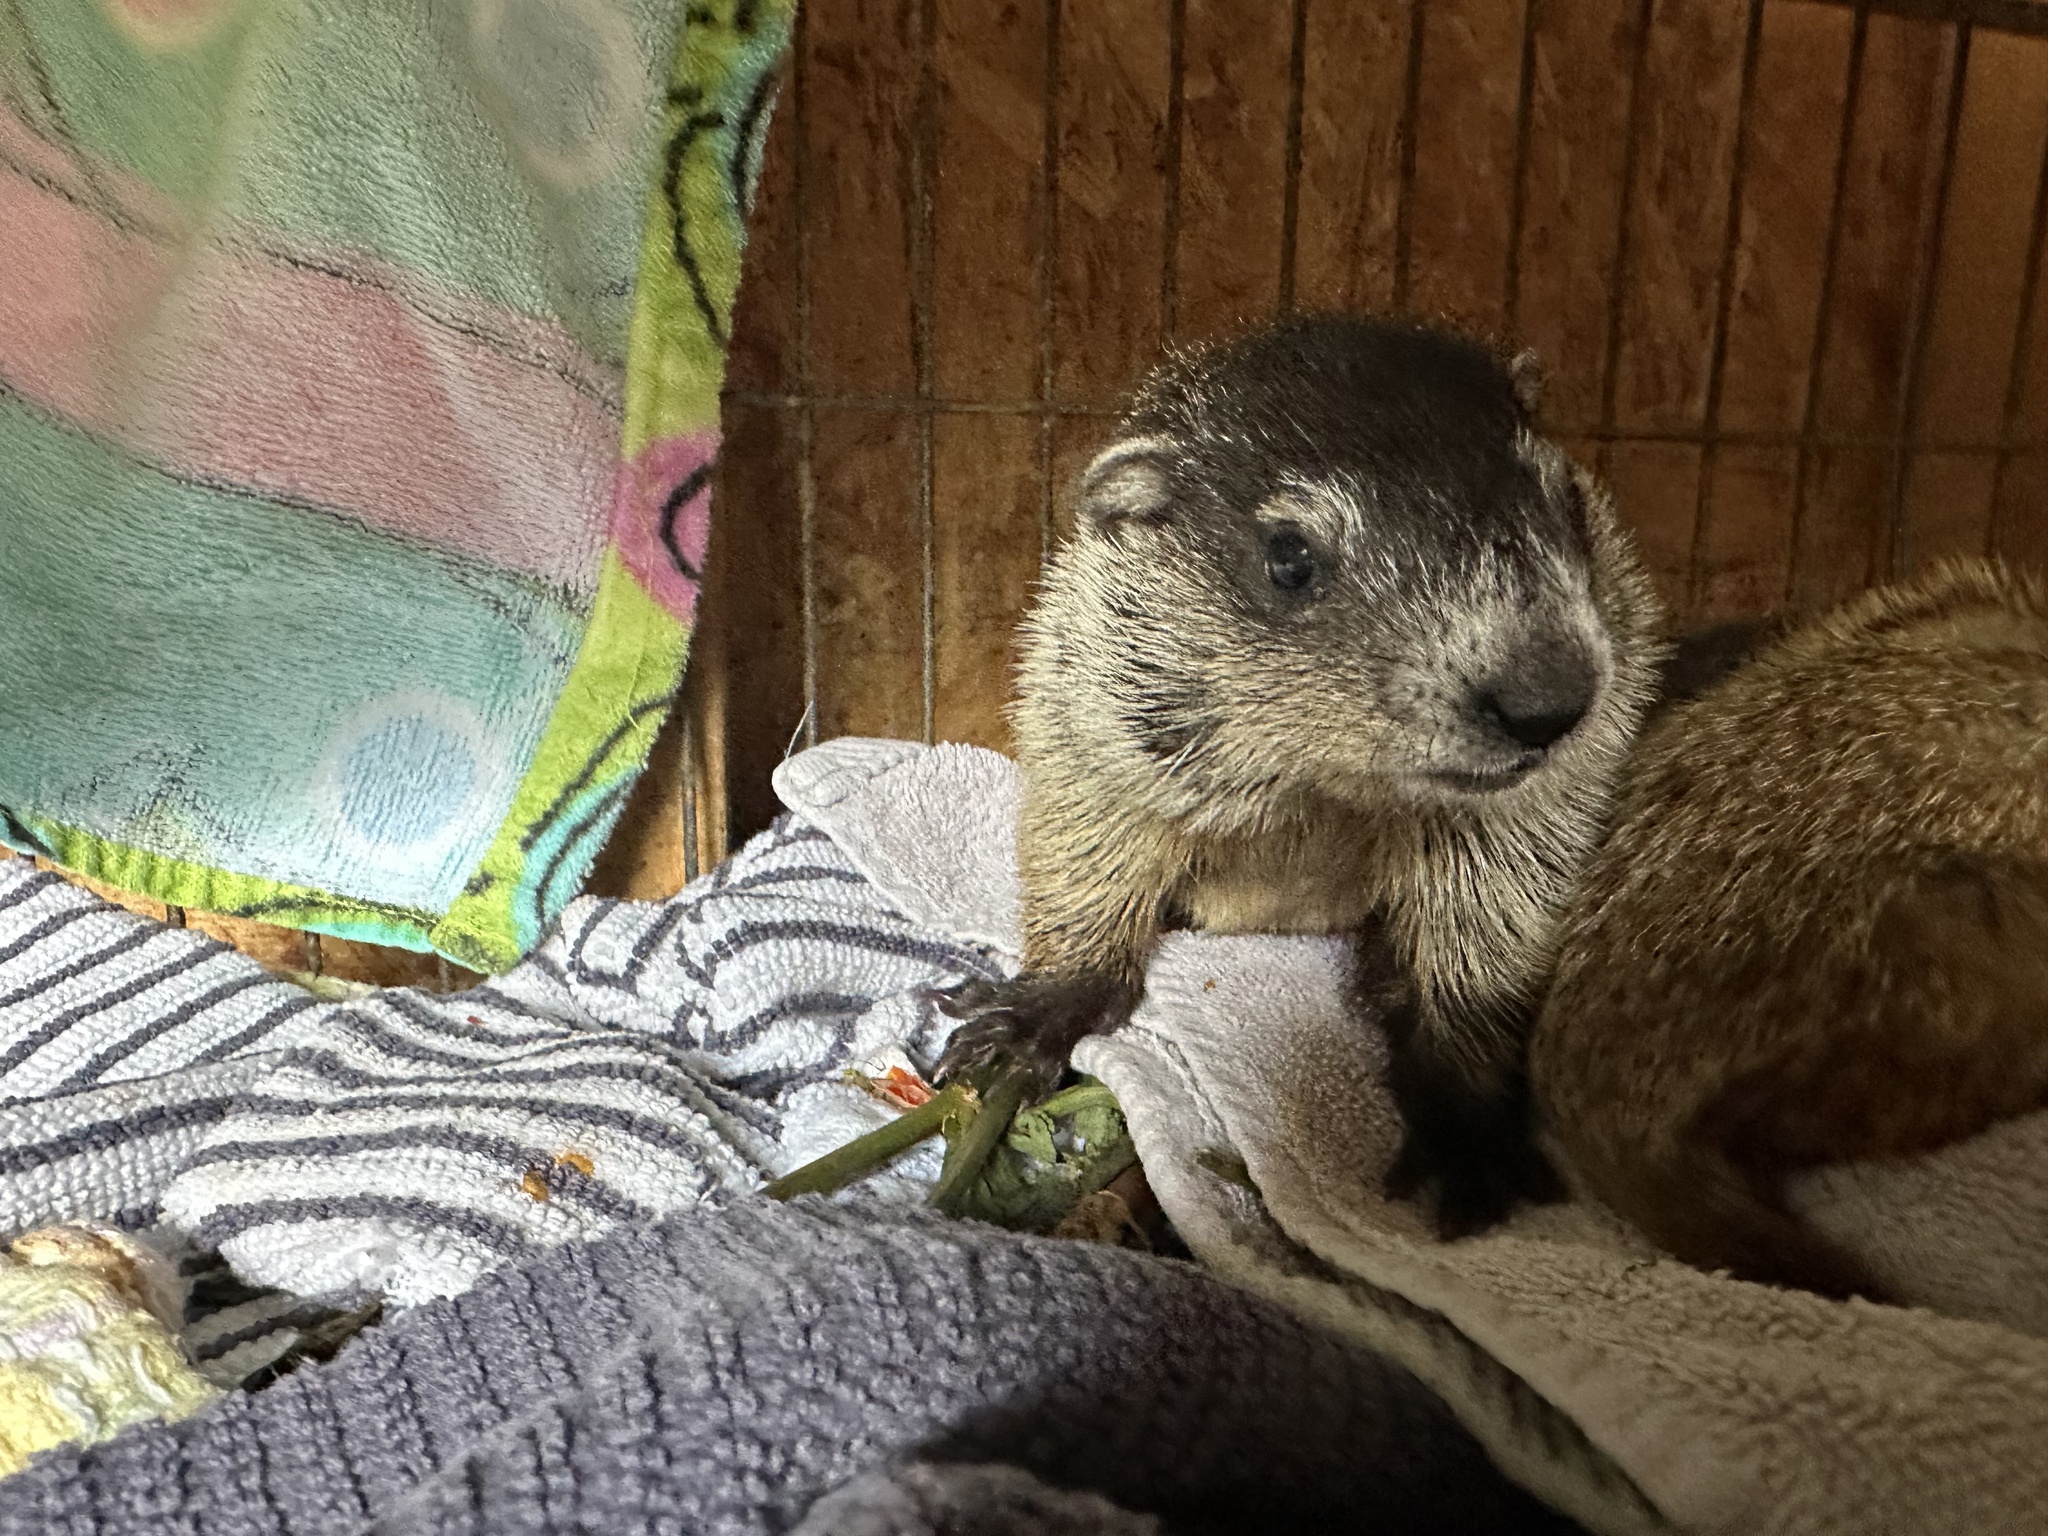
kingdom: Animalia
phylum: Chordata
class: Mammalia
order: Rodentia
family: Sciuridae
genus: Marmota
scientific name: Marmota monax
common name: Groundhog
